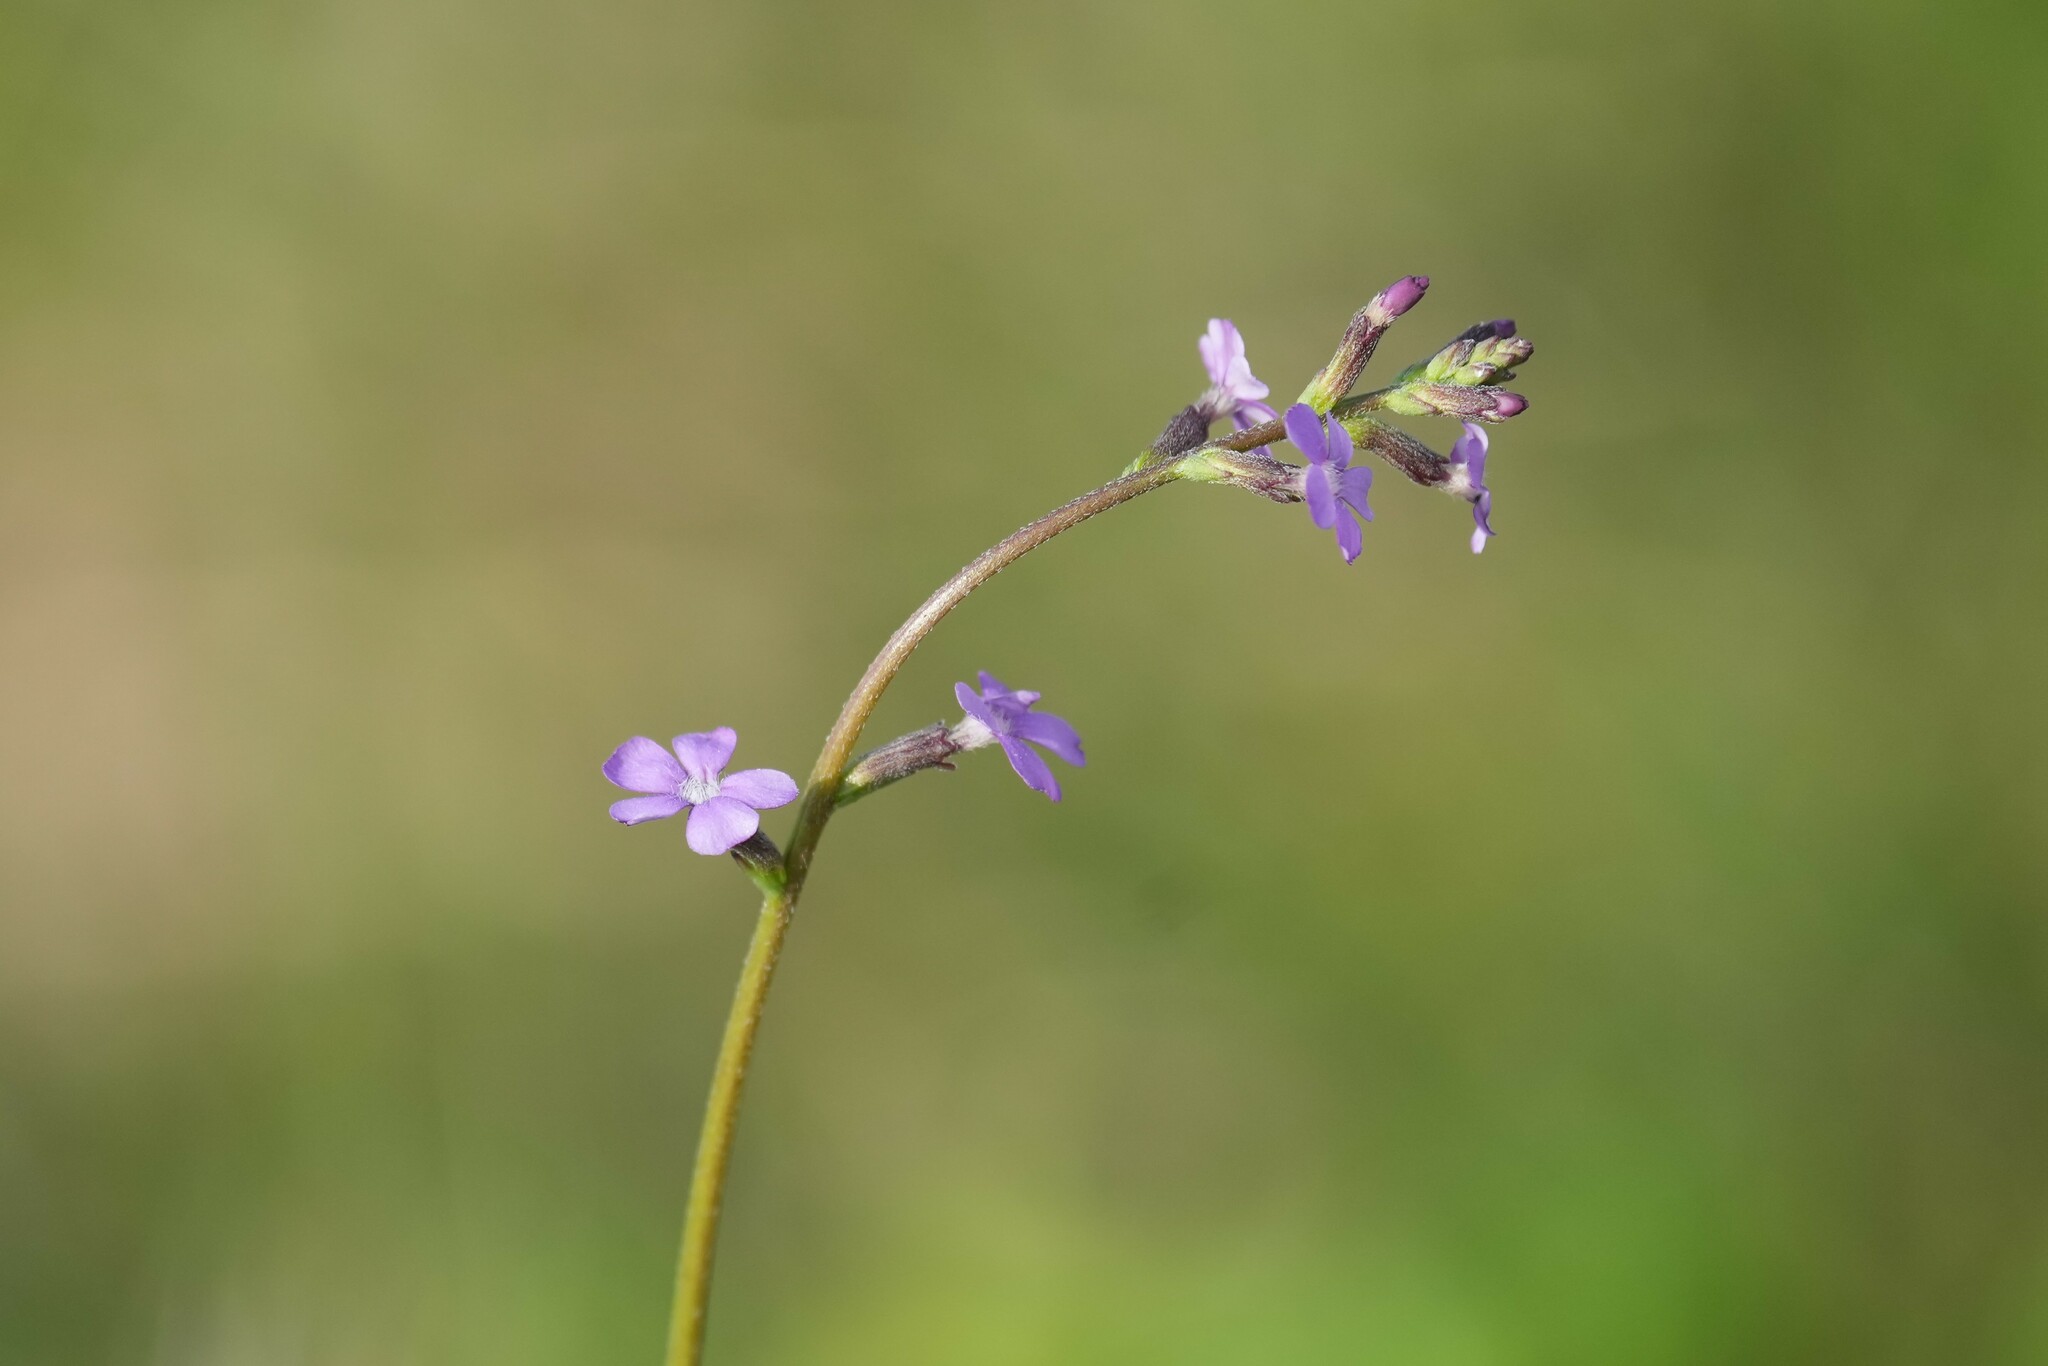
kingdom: Plantae
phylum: Tracheophyta
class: Magnoliopsida
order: Lamiales
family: Orobanchaceae
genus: Buchnera
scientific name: Buchnera floridana
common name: Florida bluehearts
